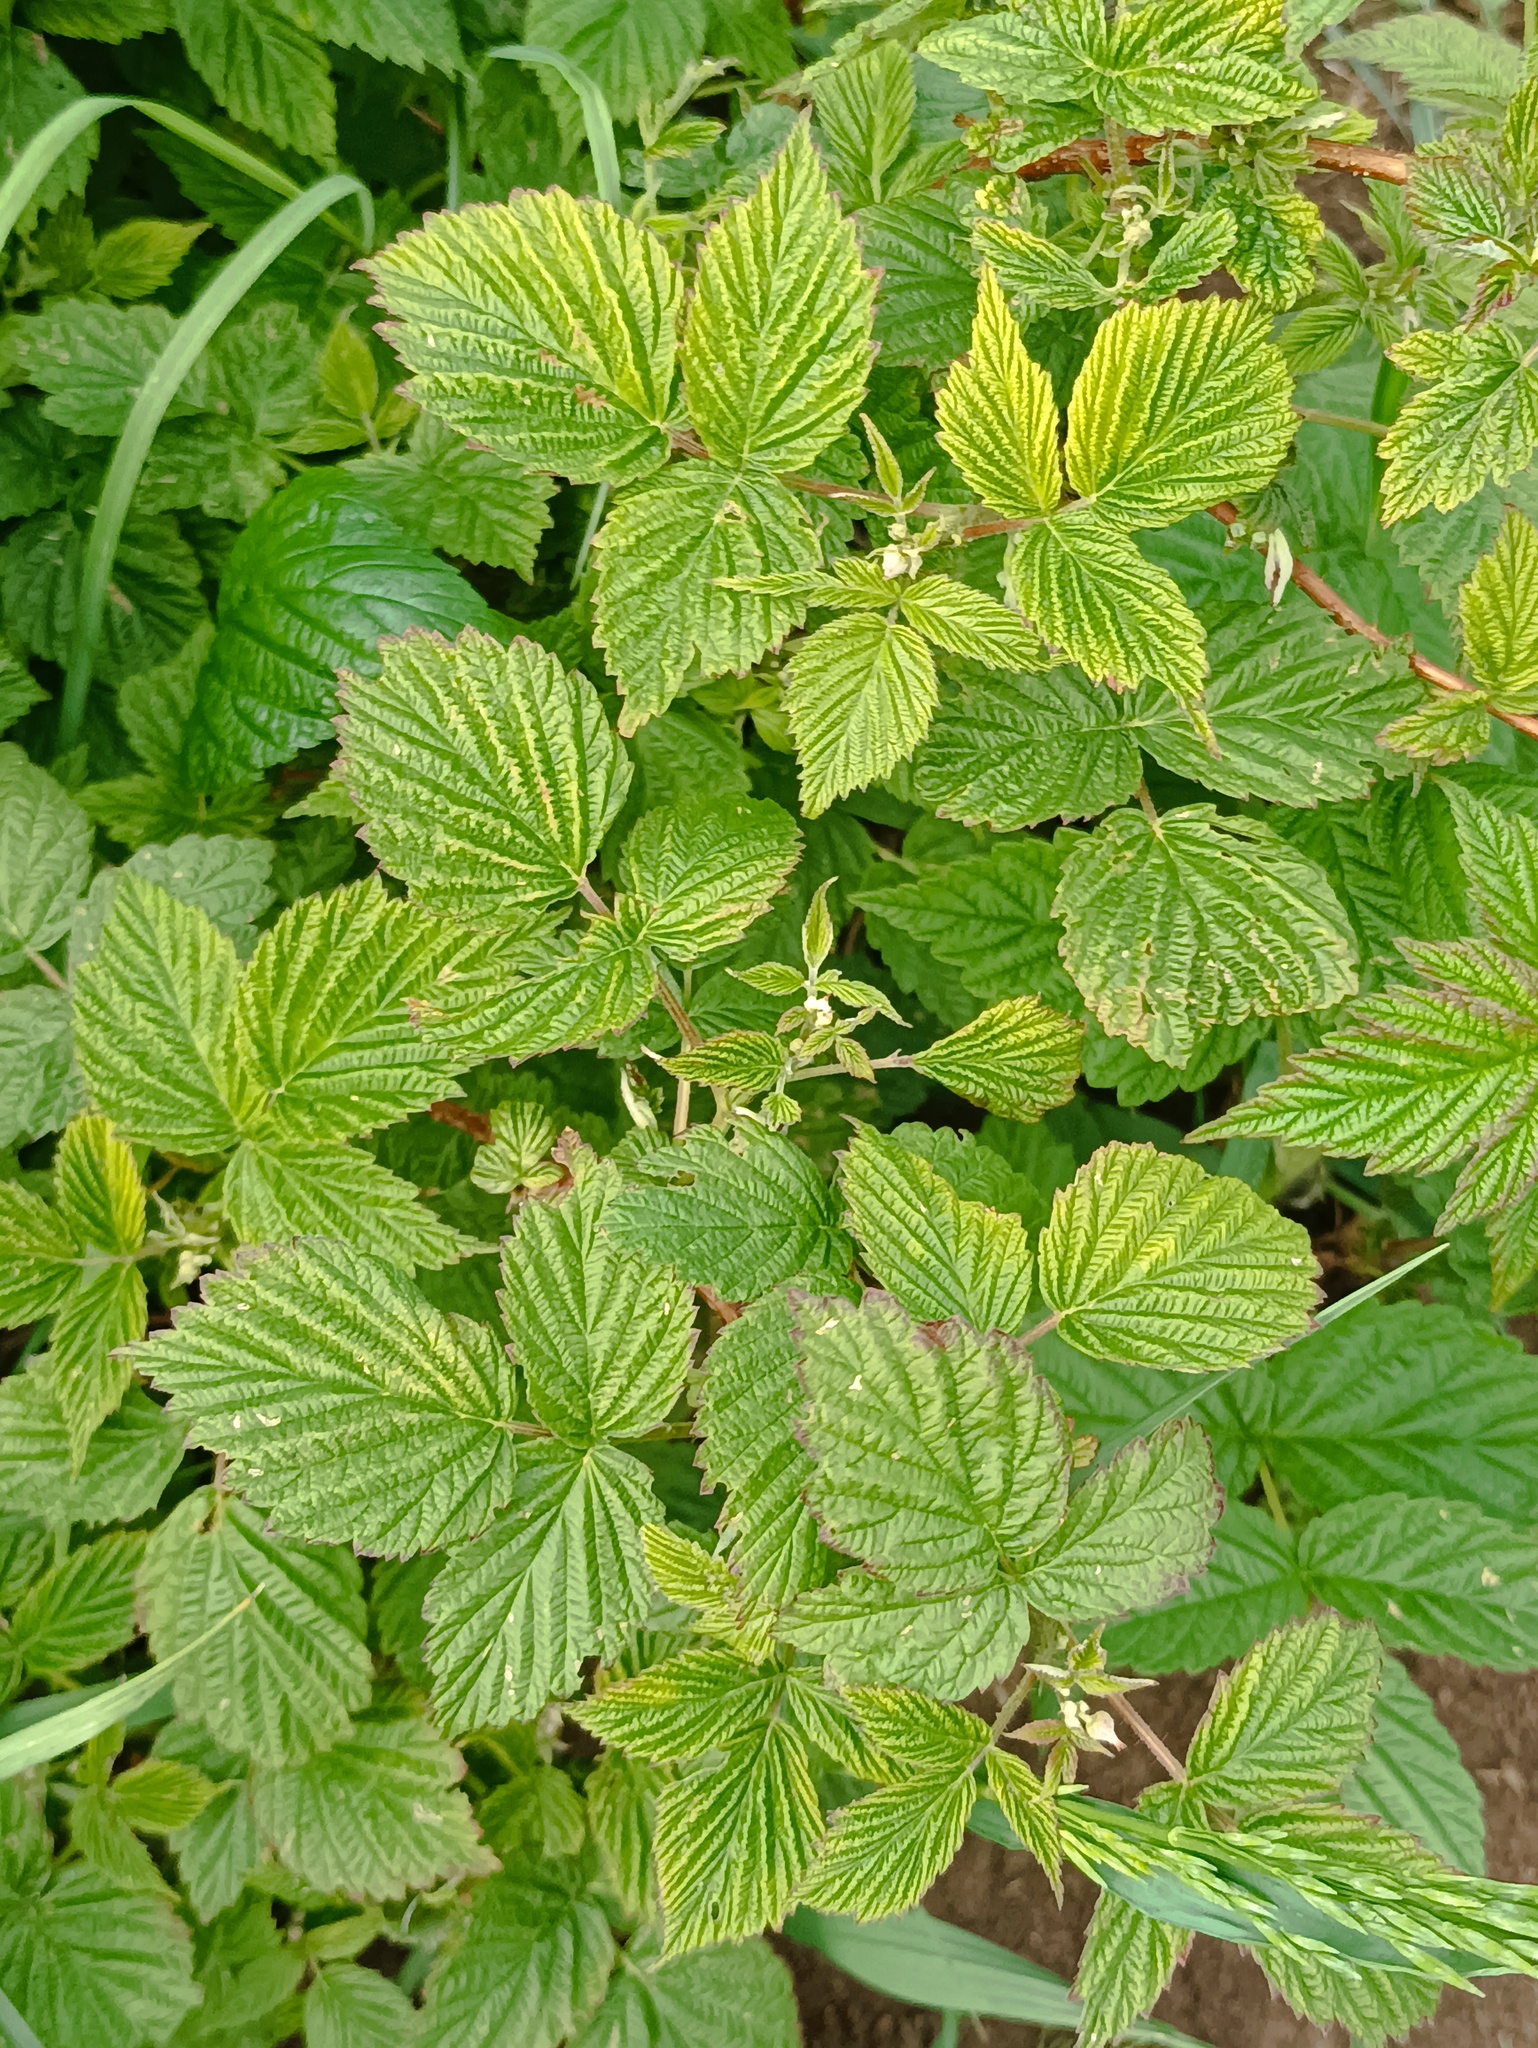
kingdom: Plantae
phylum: Tracheophyta
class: Magnoliopsida
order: Rosales
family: Rosaceae
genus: Rubus
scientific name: Rubus idaeus
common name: Raspberry
